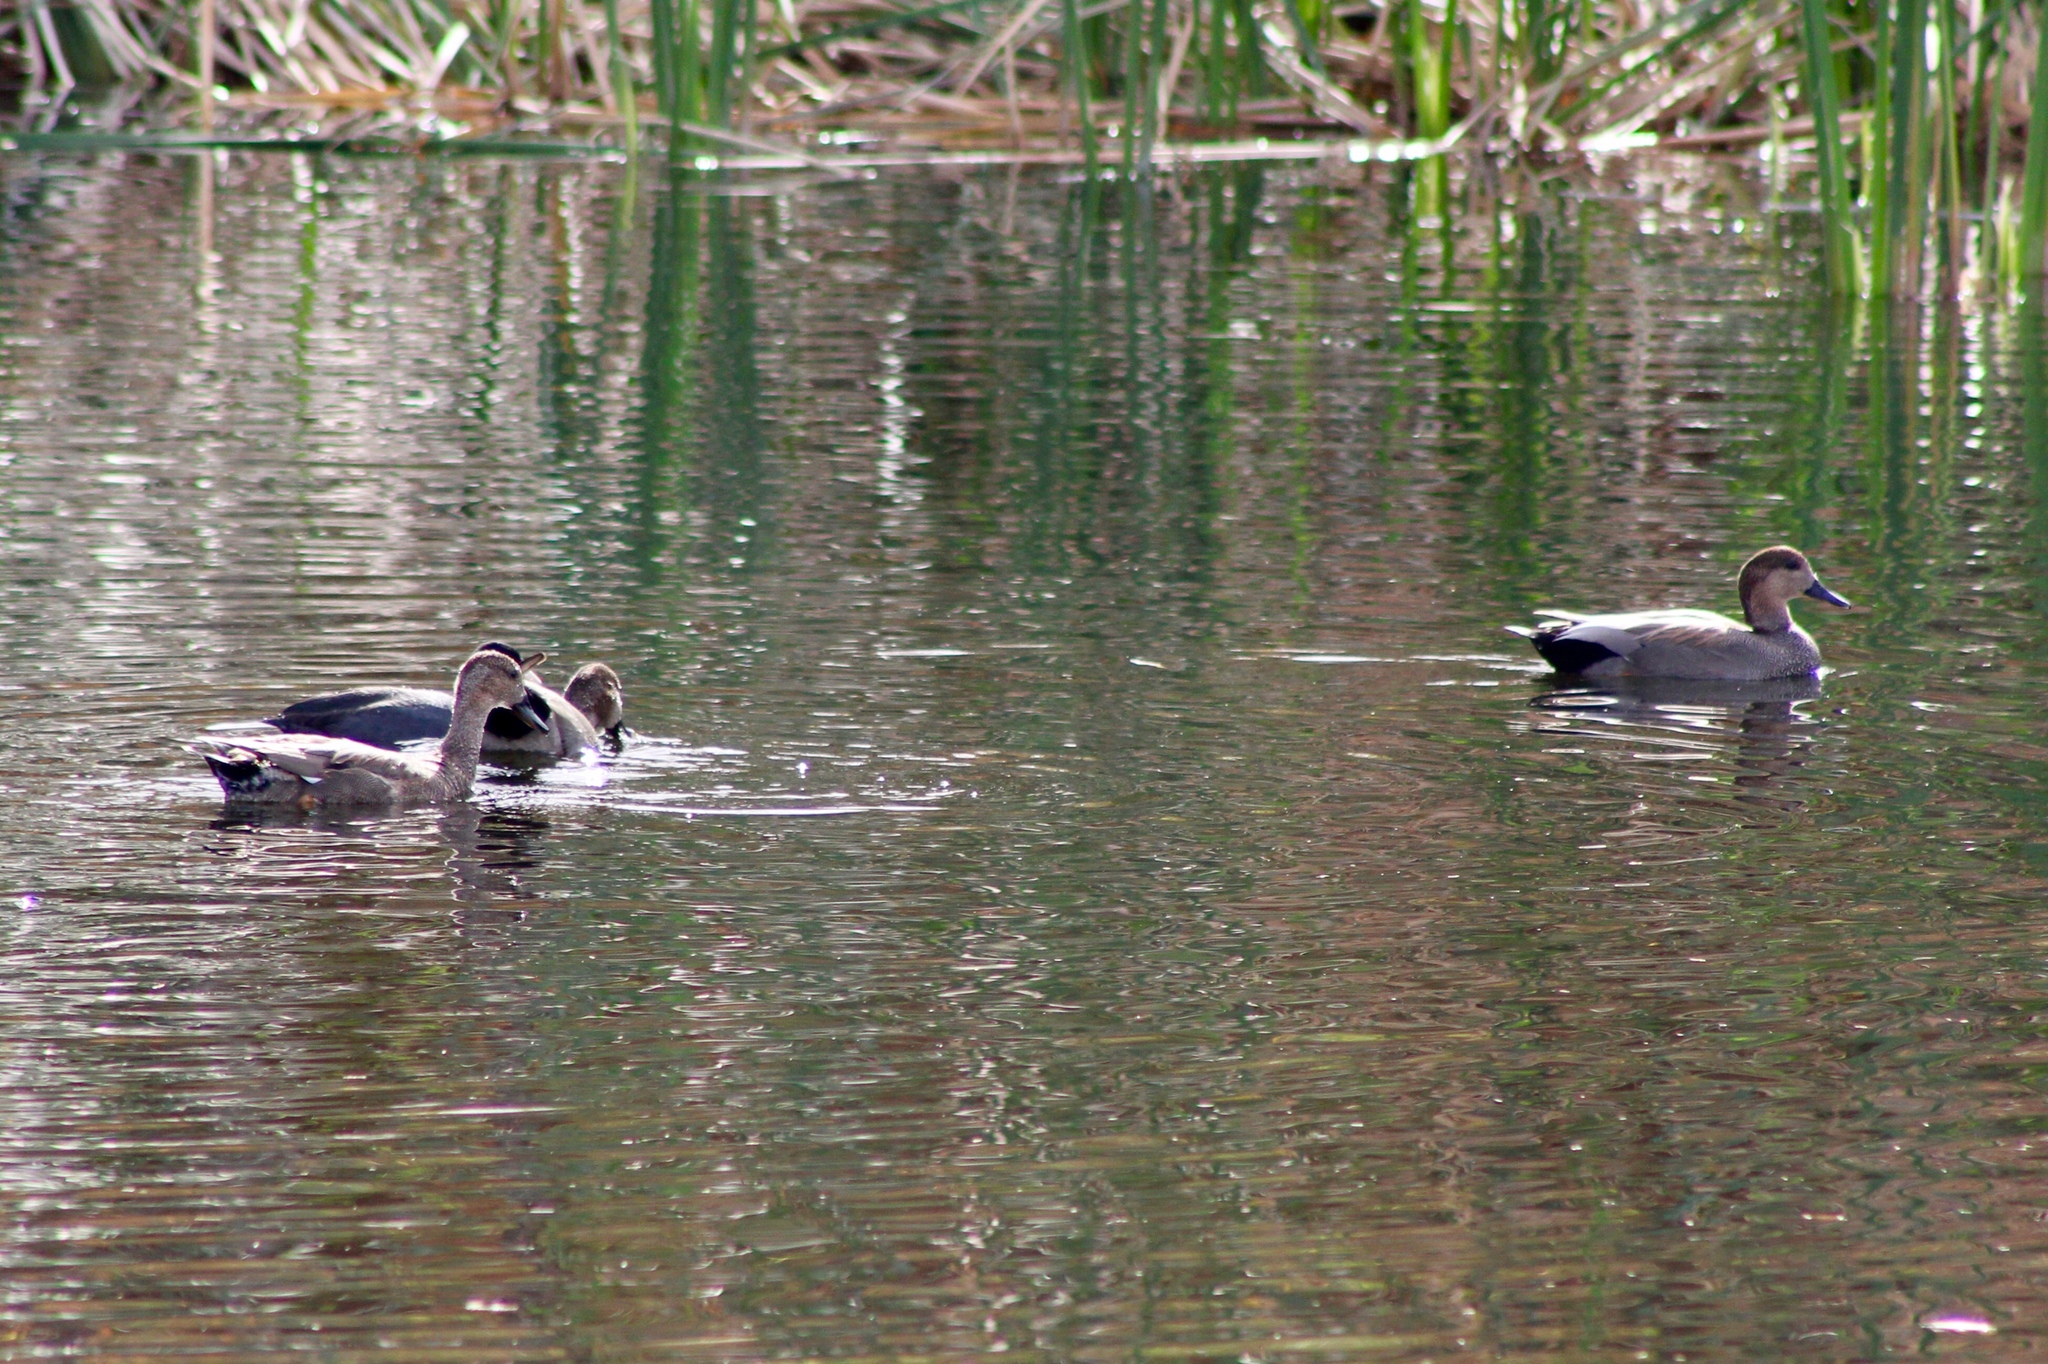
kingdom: Animalia
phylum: Chordata
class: Aves
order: Anseriformes
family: Anatidae
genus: Mareca
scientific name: Mareca strepera
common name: Gadwall
